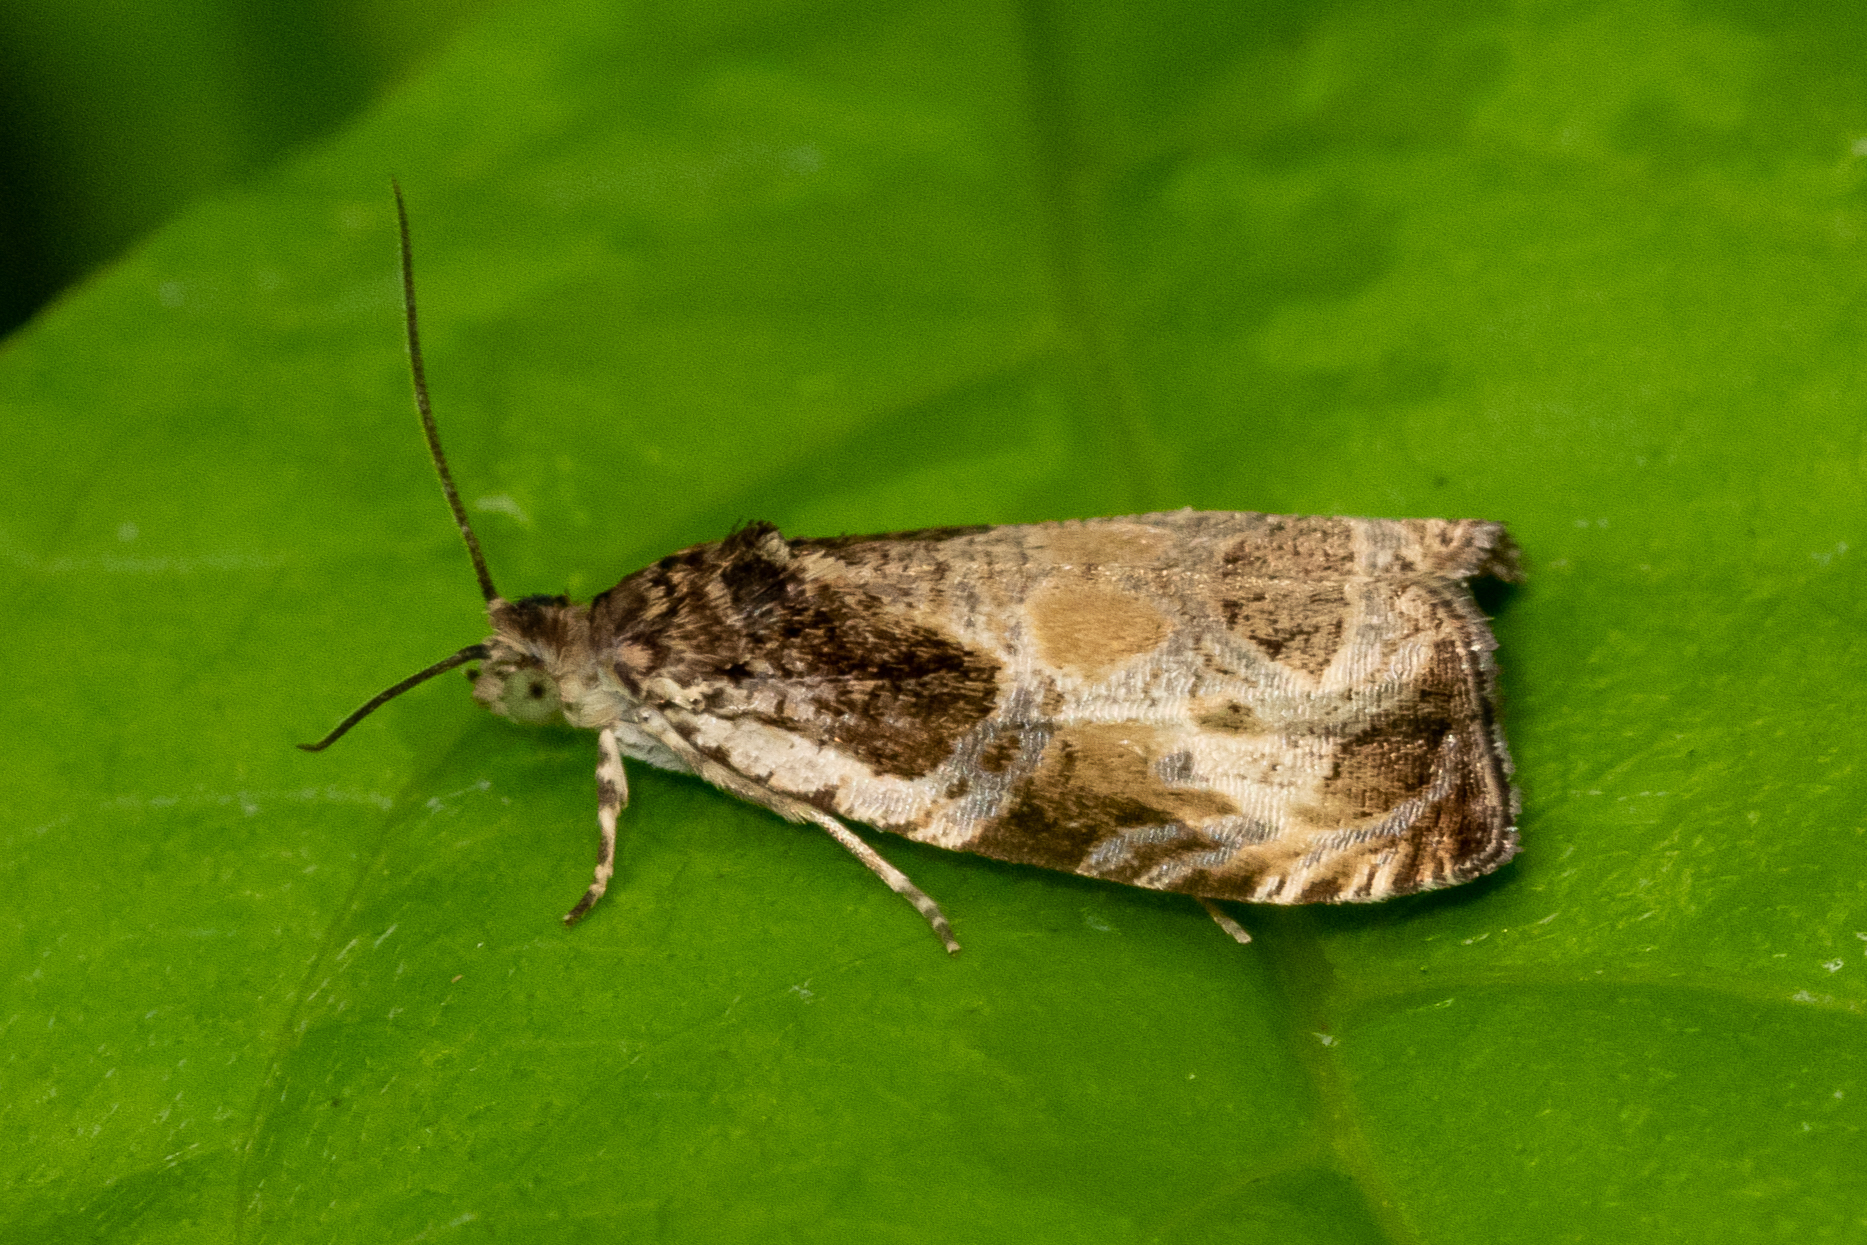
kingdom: Animalia
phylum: Arthropoda
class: Insecta
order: Lepidoptera
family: Tortricidae
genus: Olethreutes
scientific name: Olethreutes connectum
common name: Bunchberry leaffolder moth
